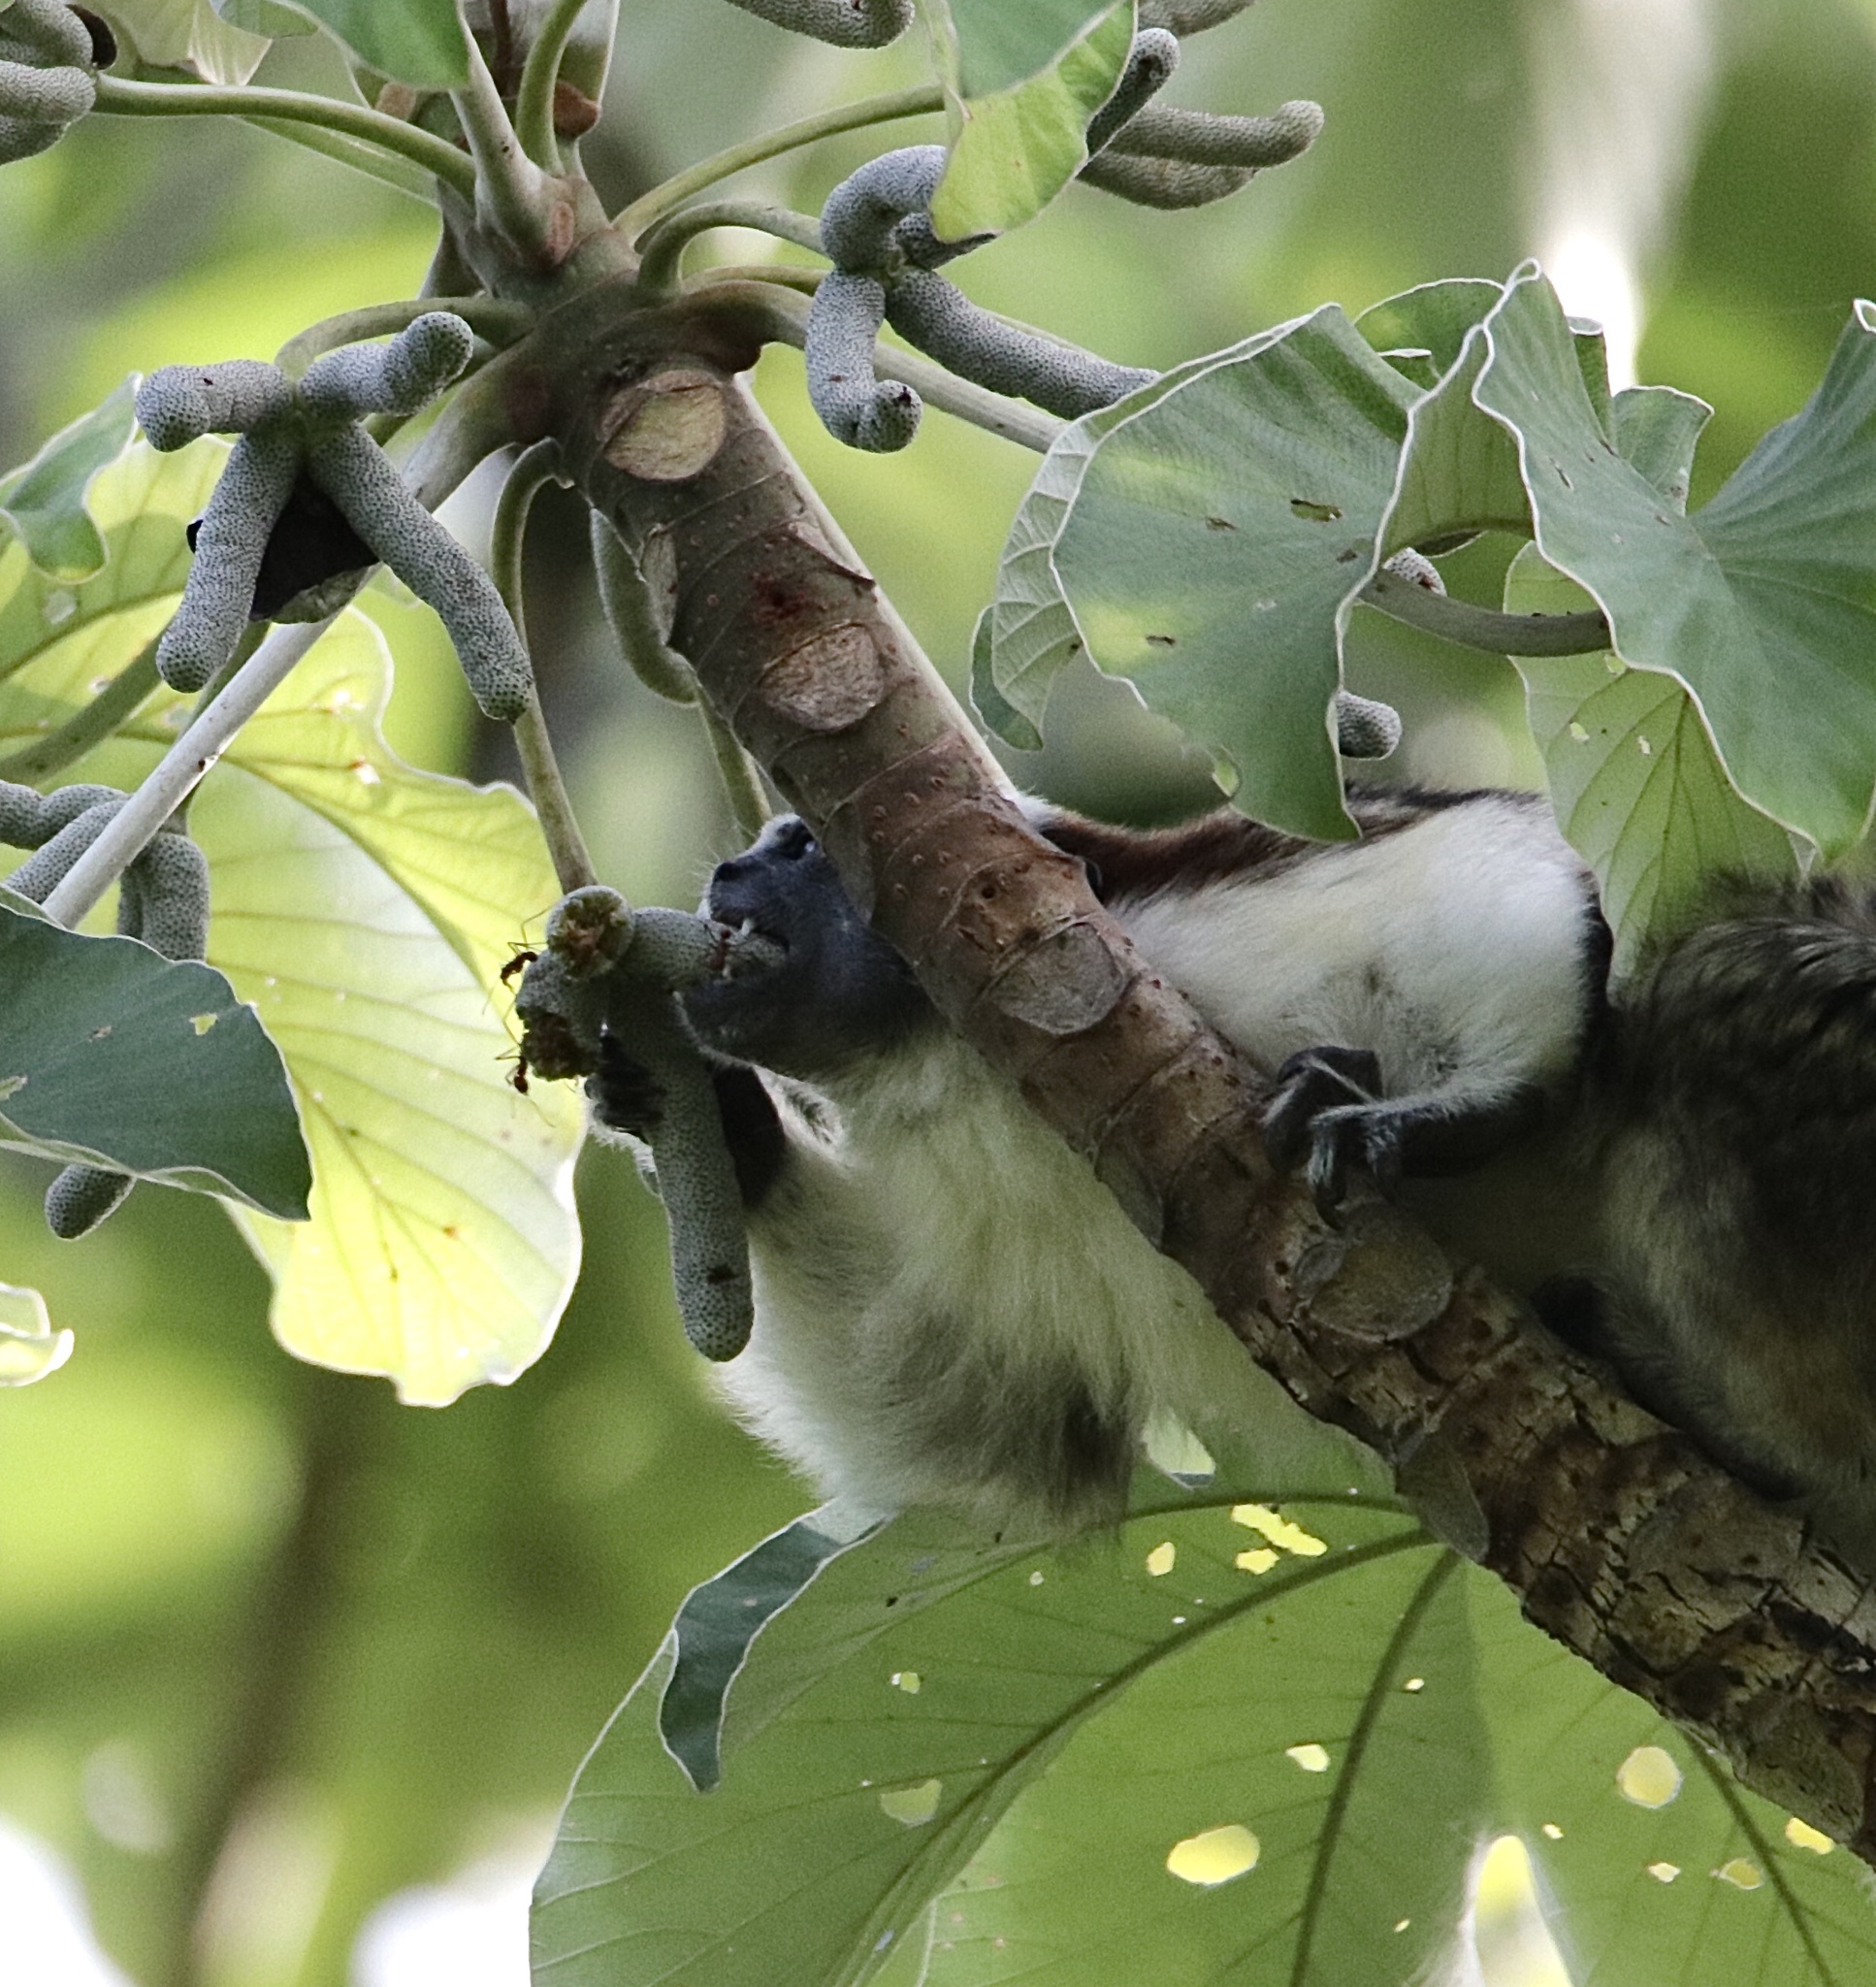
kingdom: Animalia
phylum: Chordata
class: Mammalia
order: Primates
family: Callitrichidae
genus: Saguinus
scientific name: Saguinus geoffroyi
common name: Geoffroy s tamarin
